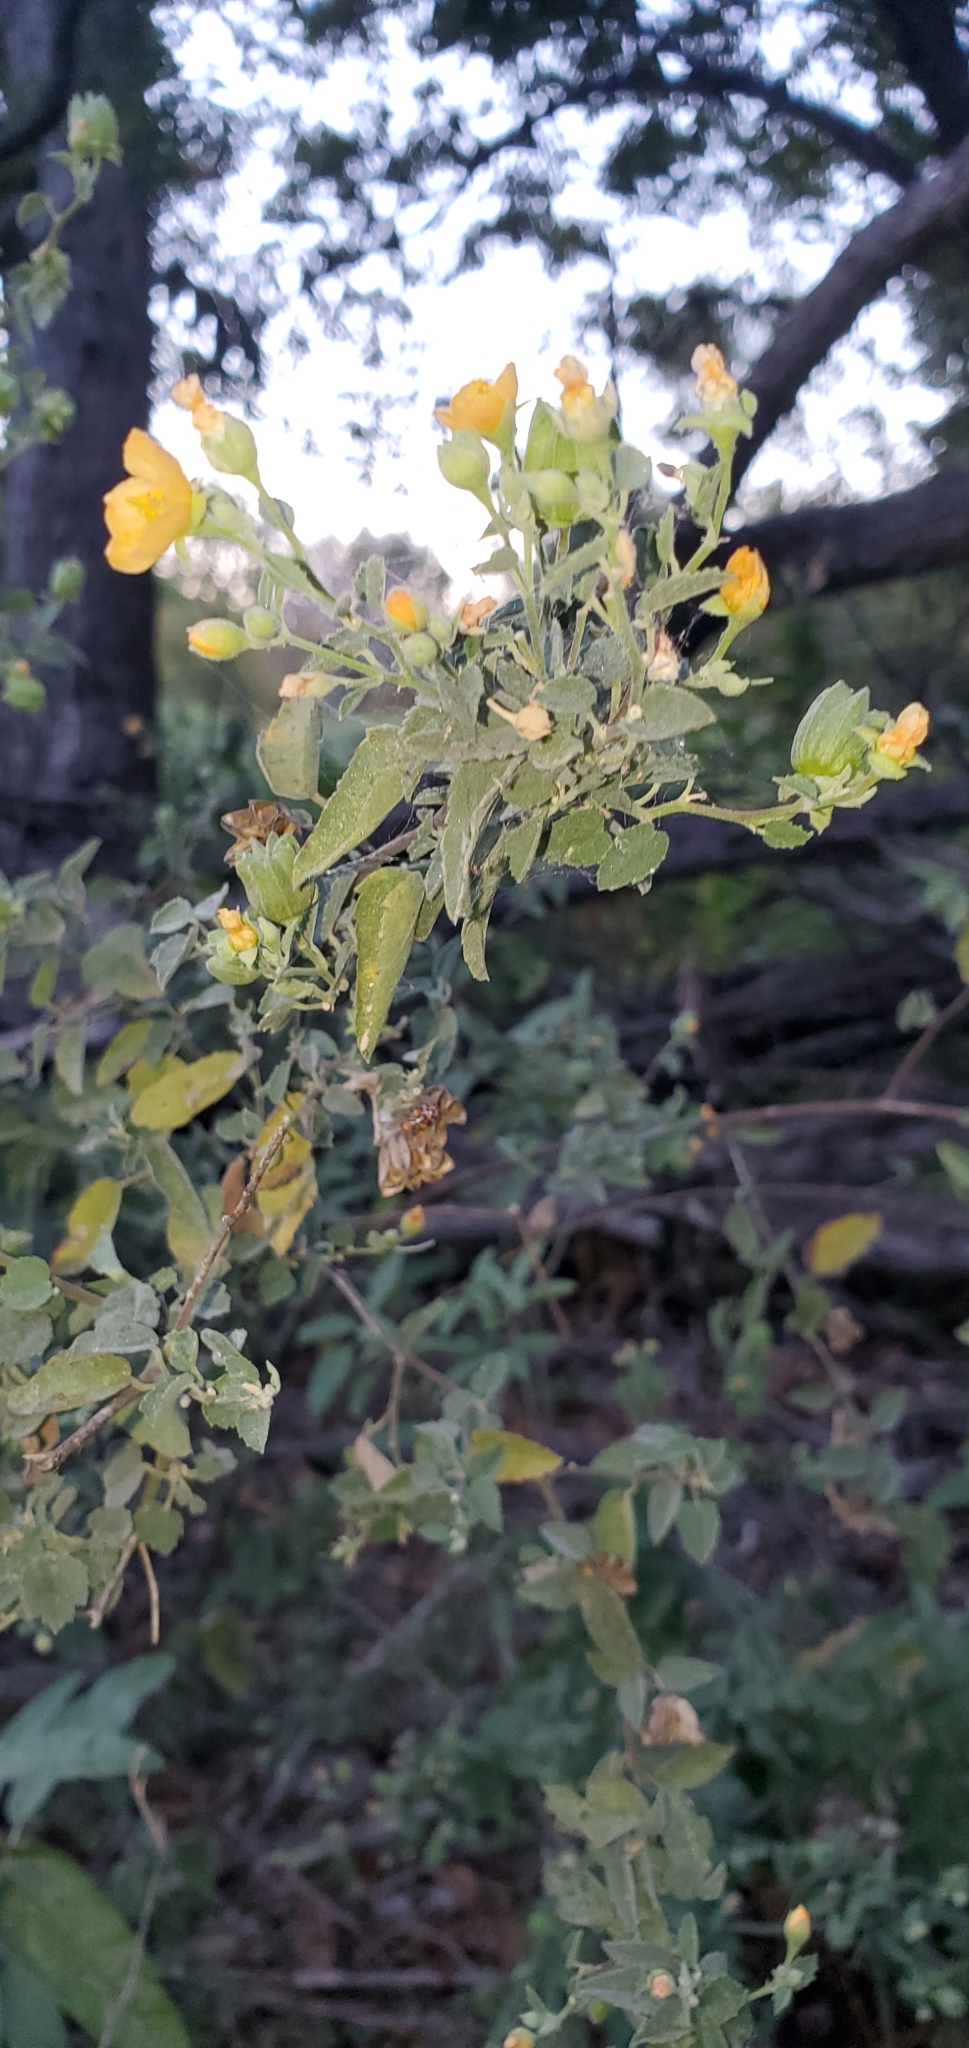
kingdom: Plantae
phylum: Tracheophyta
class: Magnoliopsida
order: Malvales
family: Malvaceae
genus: Abutilon
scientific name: Abutilon fruticosum
